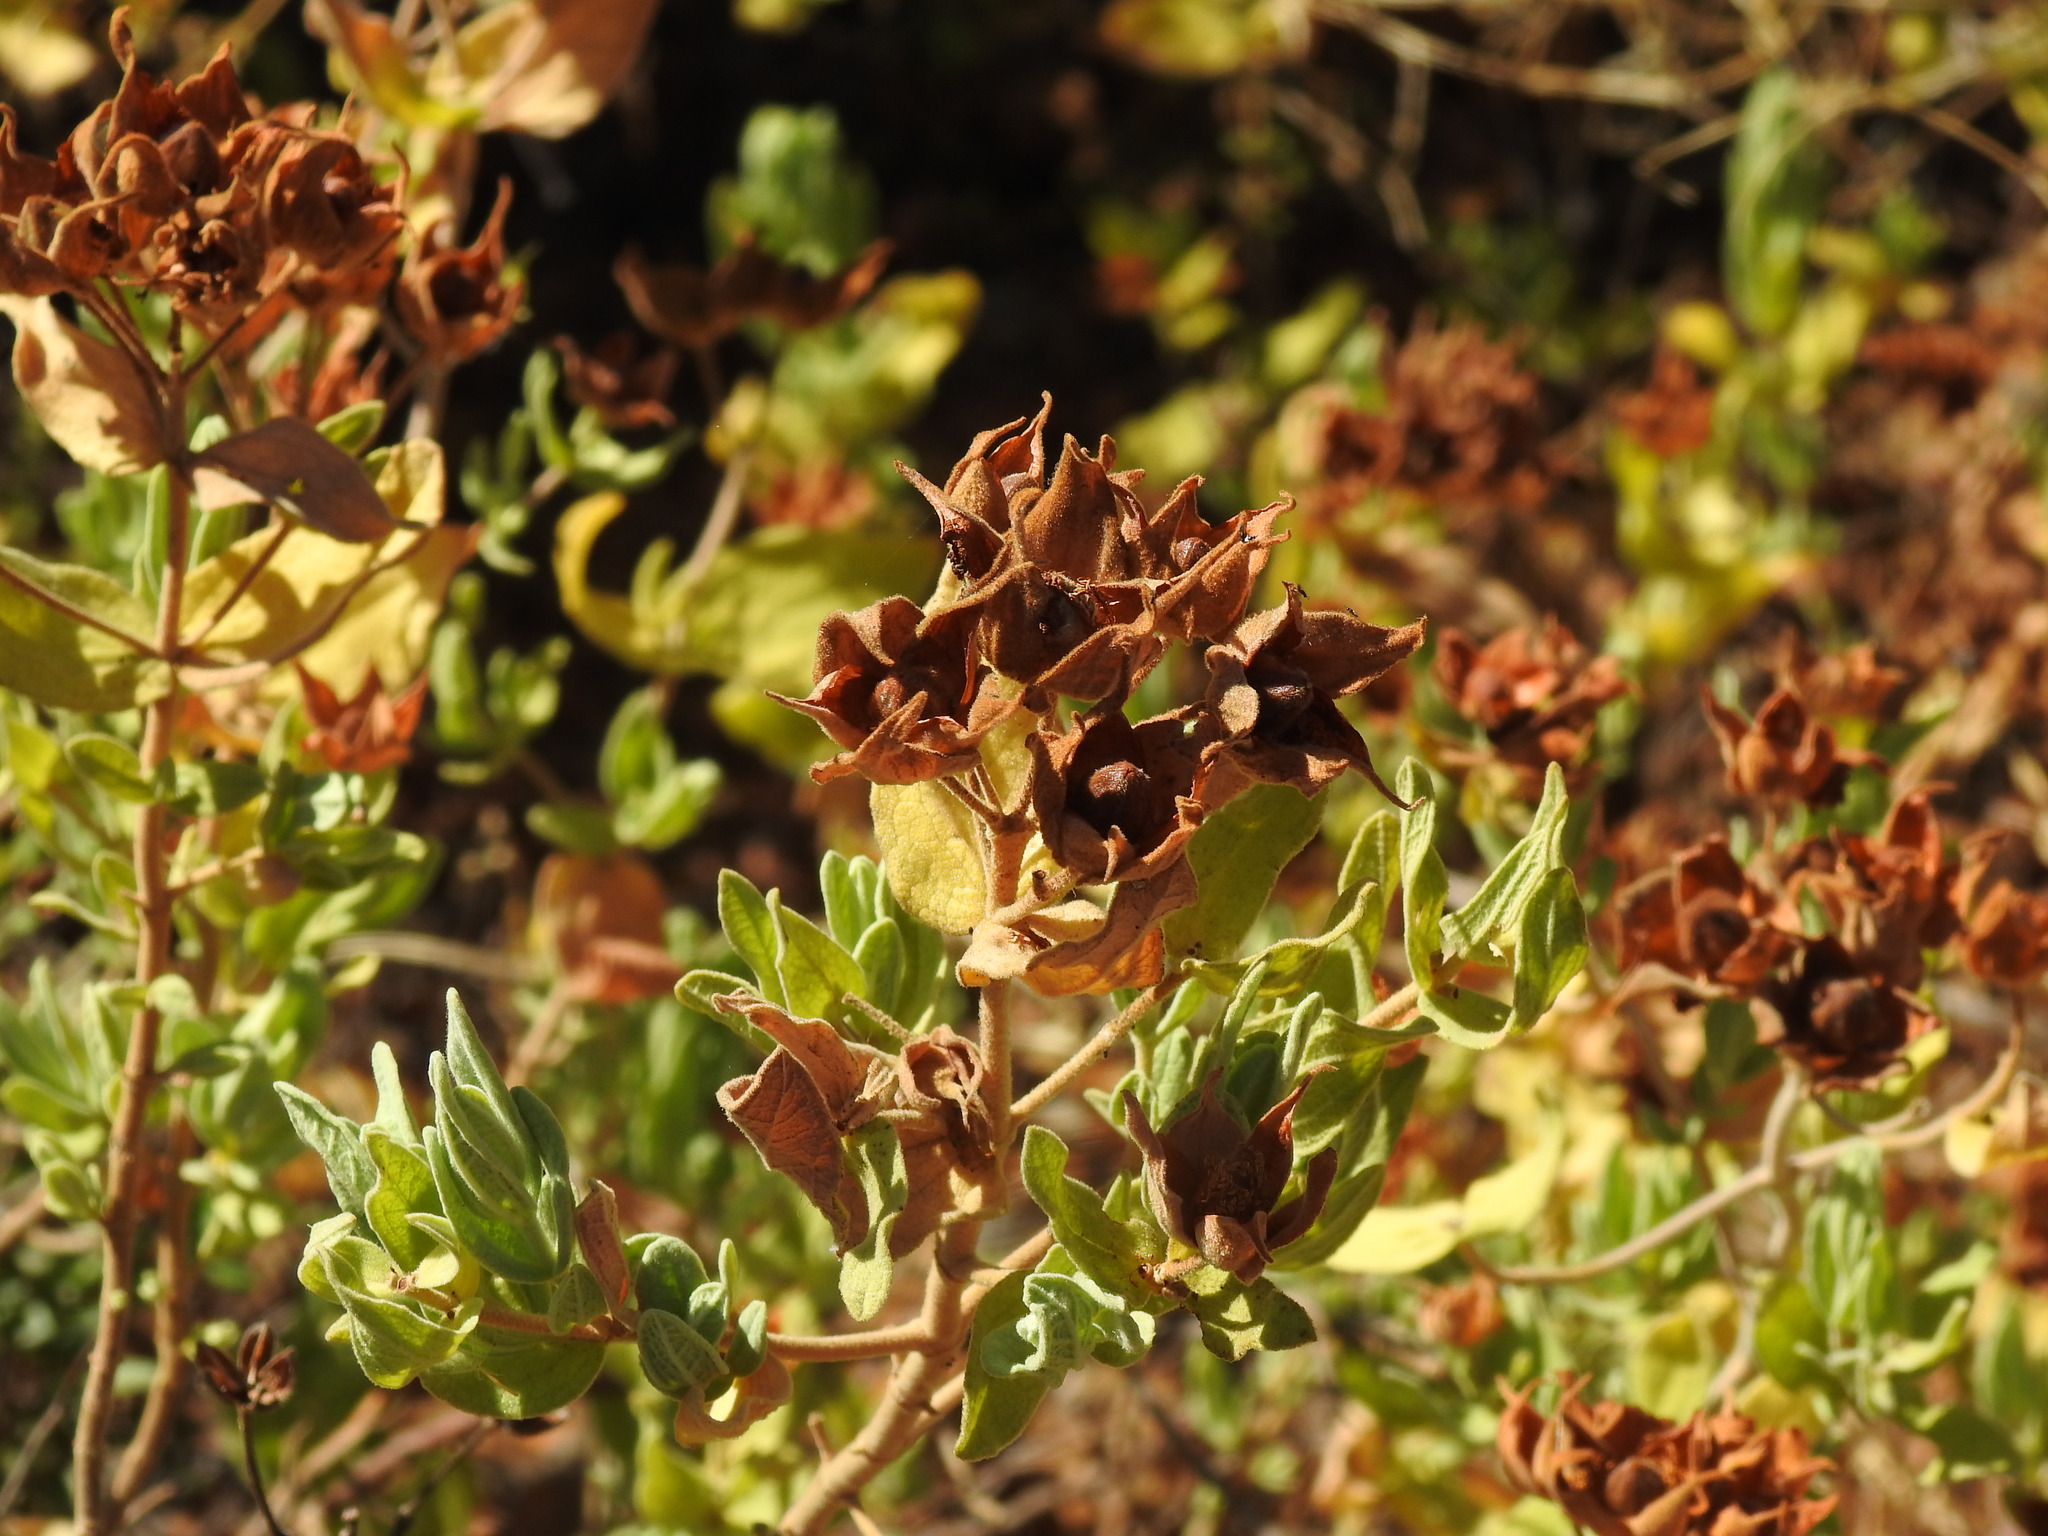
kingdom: Plantae
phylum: Tracheophyta
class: Magnoliopsida
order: Malvales
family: Cistaceae
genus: Cistus
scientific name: Cistus albidus
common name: White-leaf rock-rose
